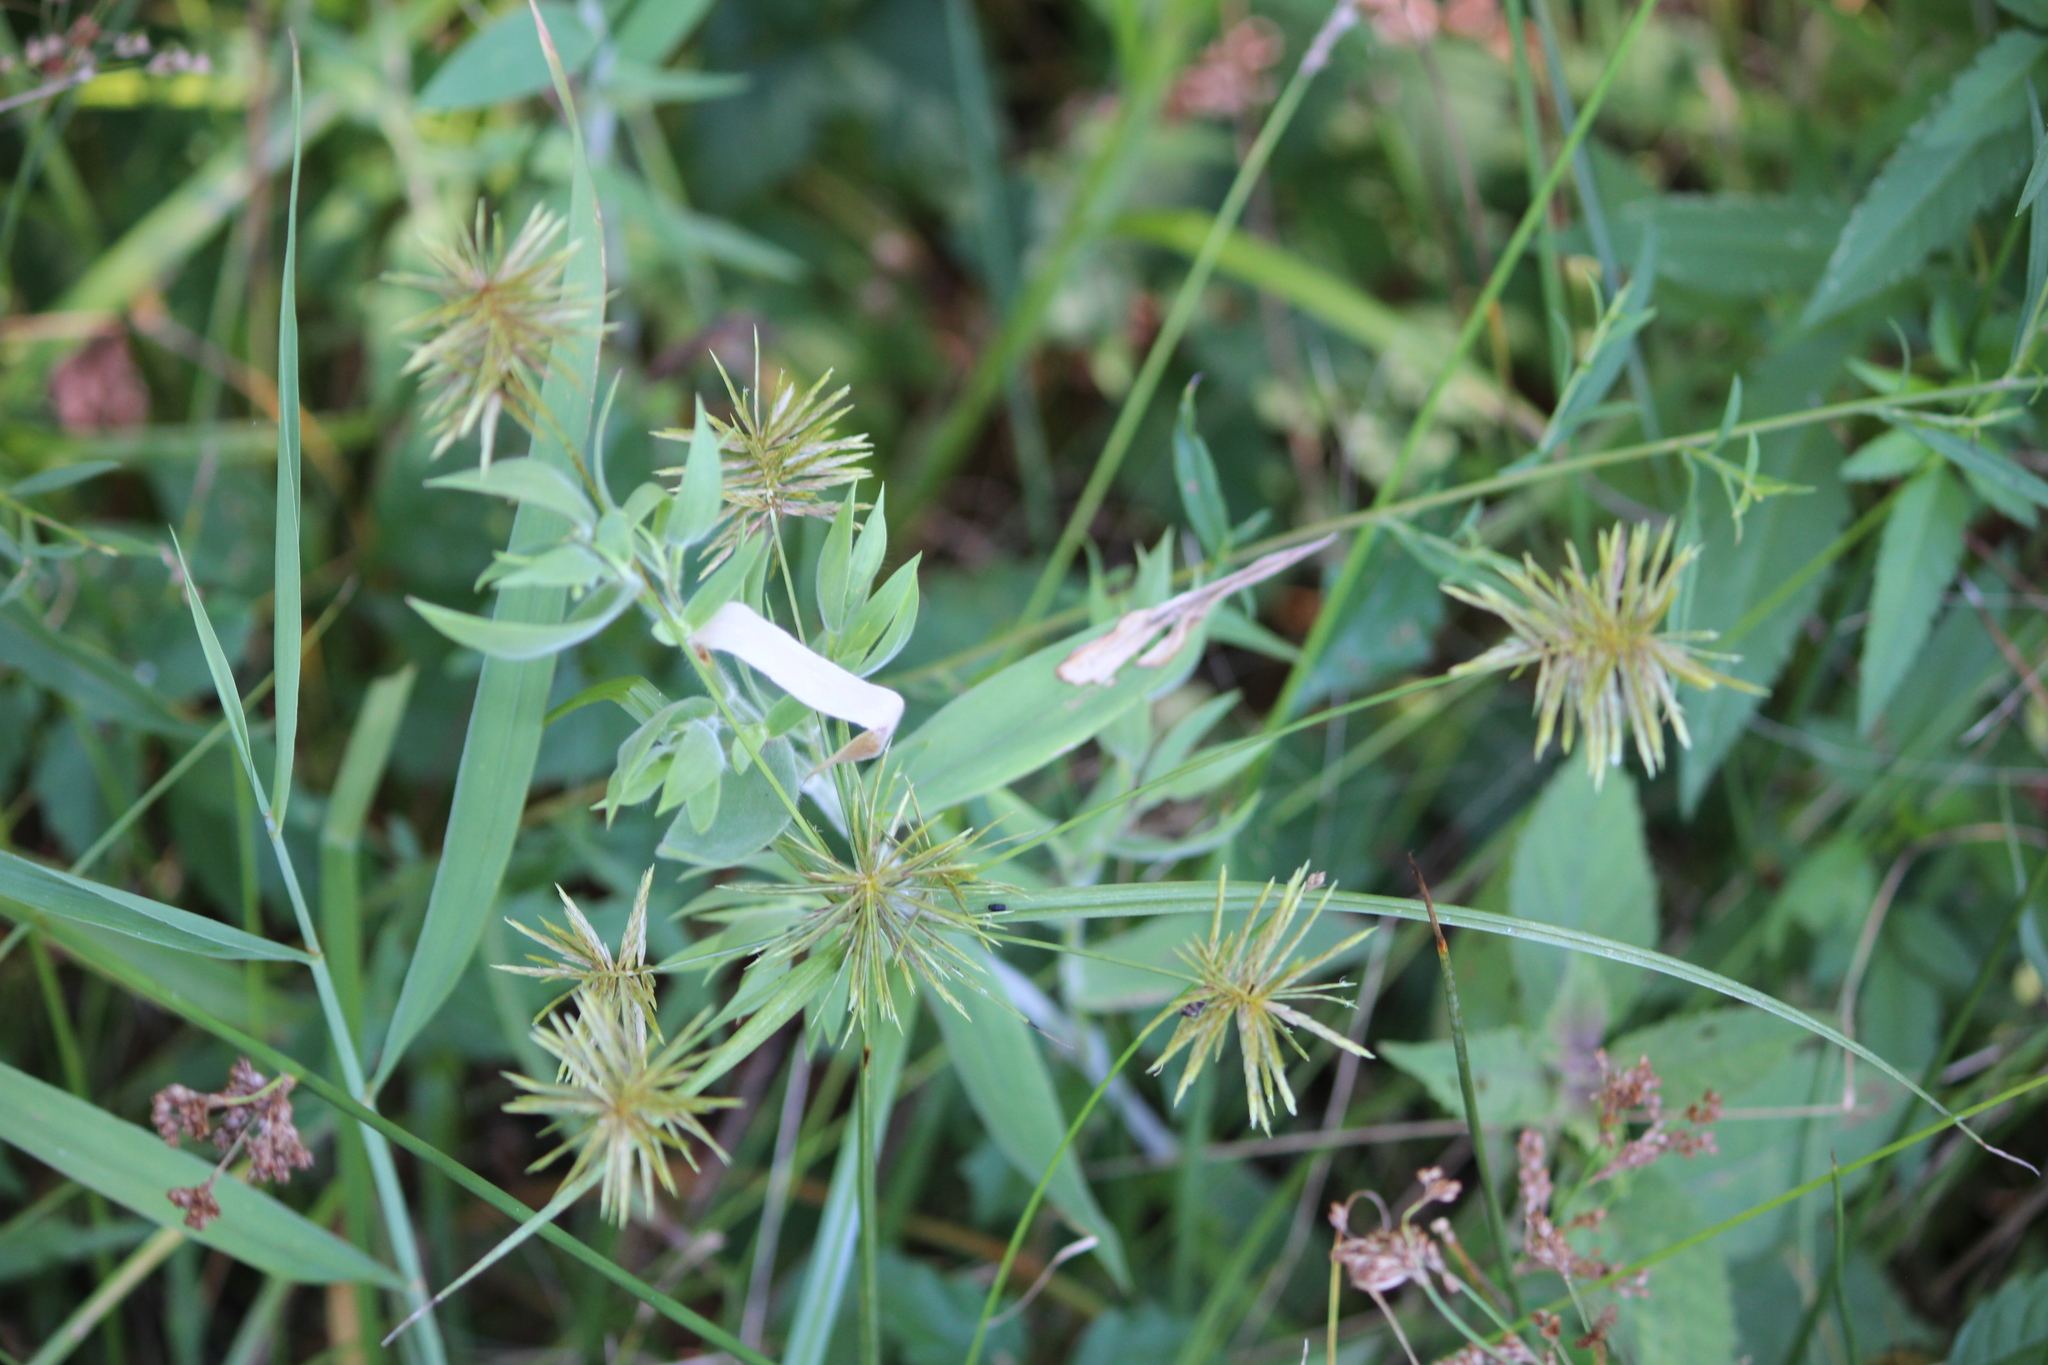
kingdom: Plantae
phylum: Tracheophyta
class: Liliopsida
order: Poales
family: Cyperaceae
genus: Cyperus
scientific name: Cyperus strigosus
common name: False nutsedge
